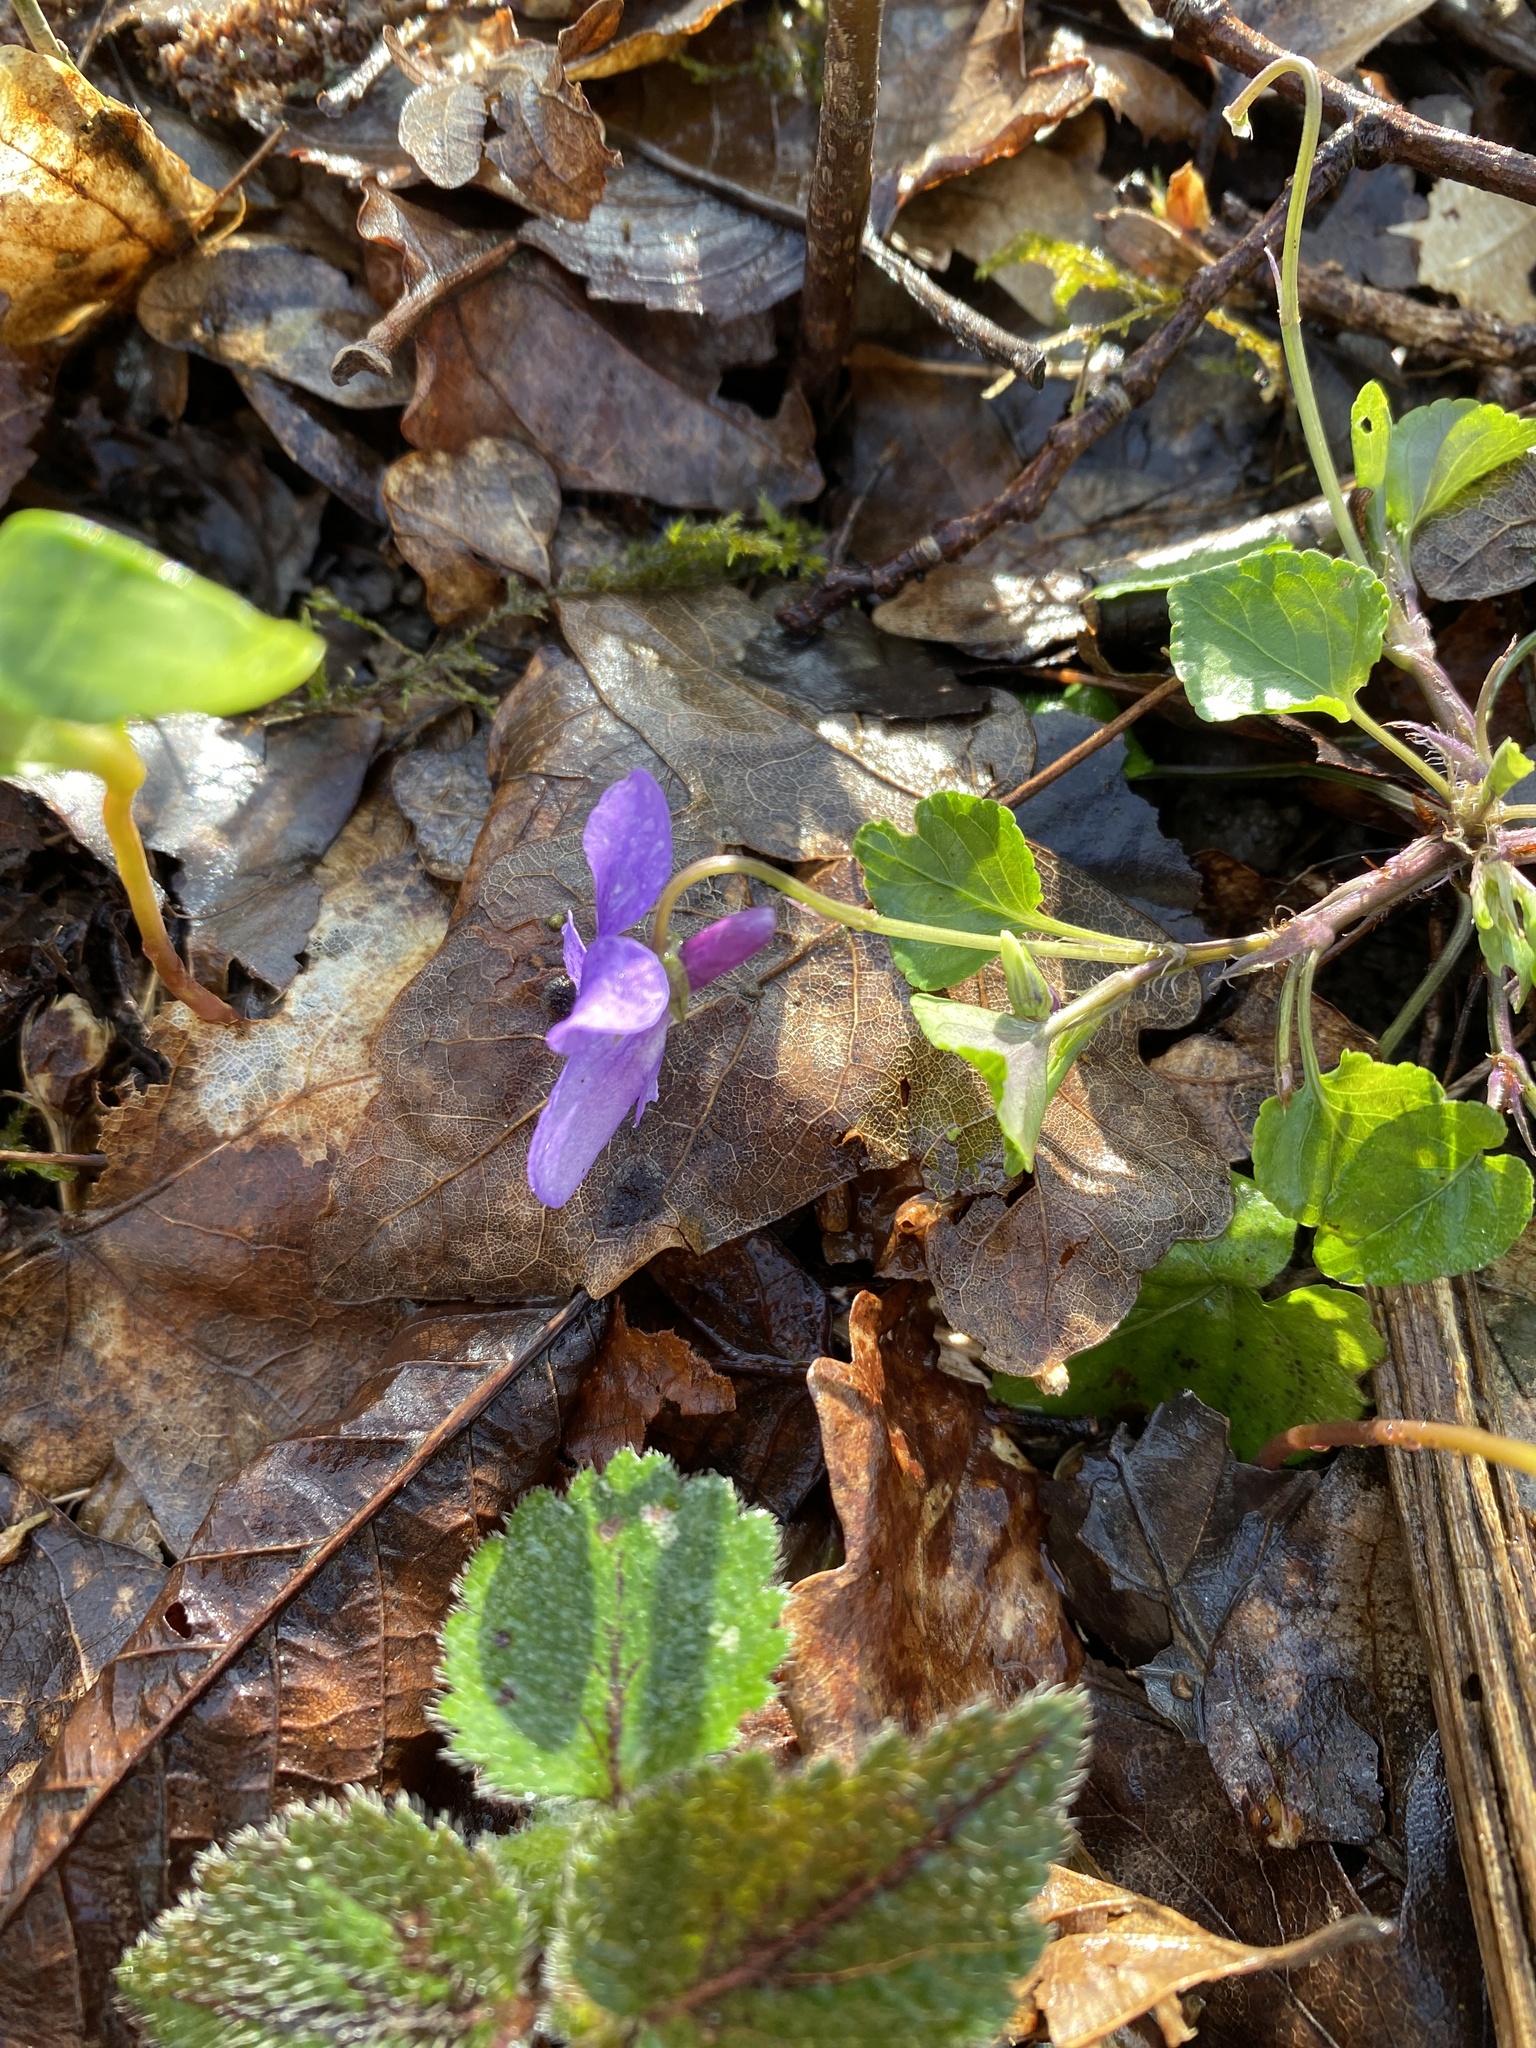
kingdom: Plantae
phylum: Tracheophyta
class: Magnoliopsida
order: Malpighiales
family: Violaceae
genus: Viola
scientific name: Viola reichenbachiana
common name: Early dog-violet
